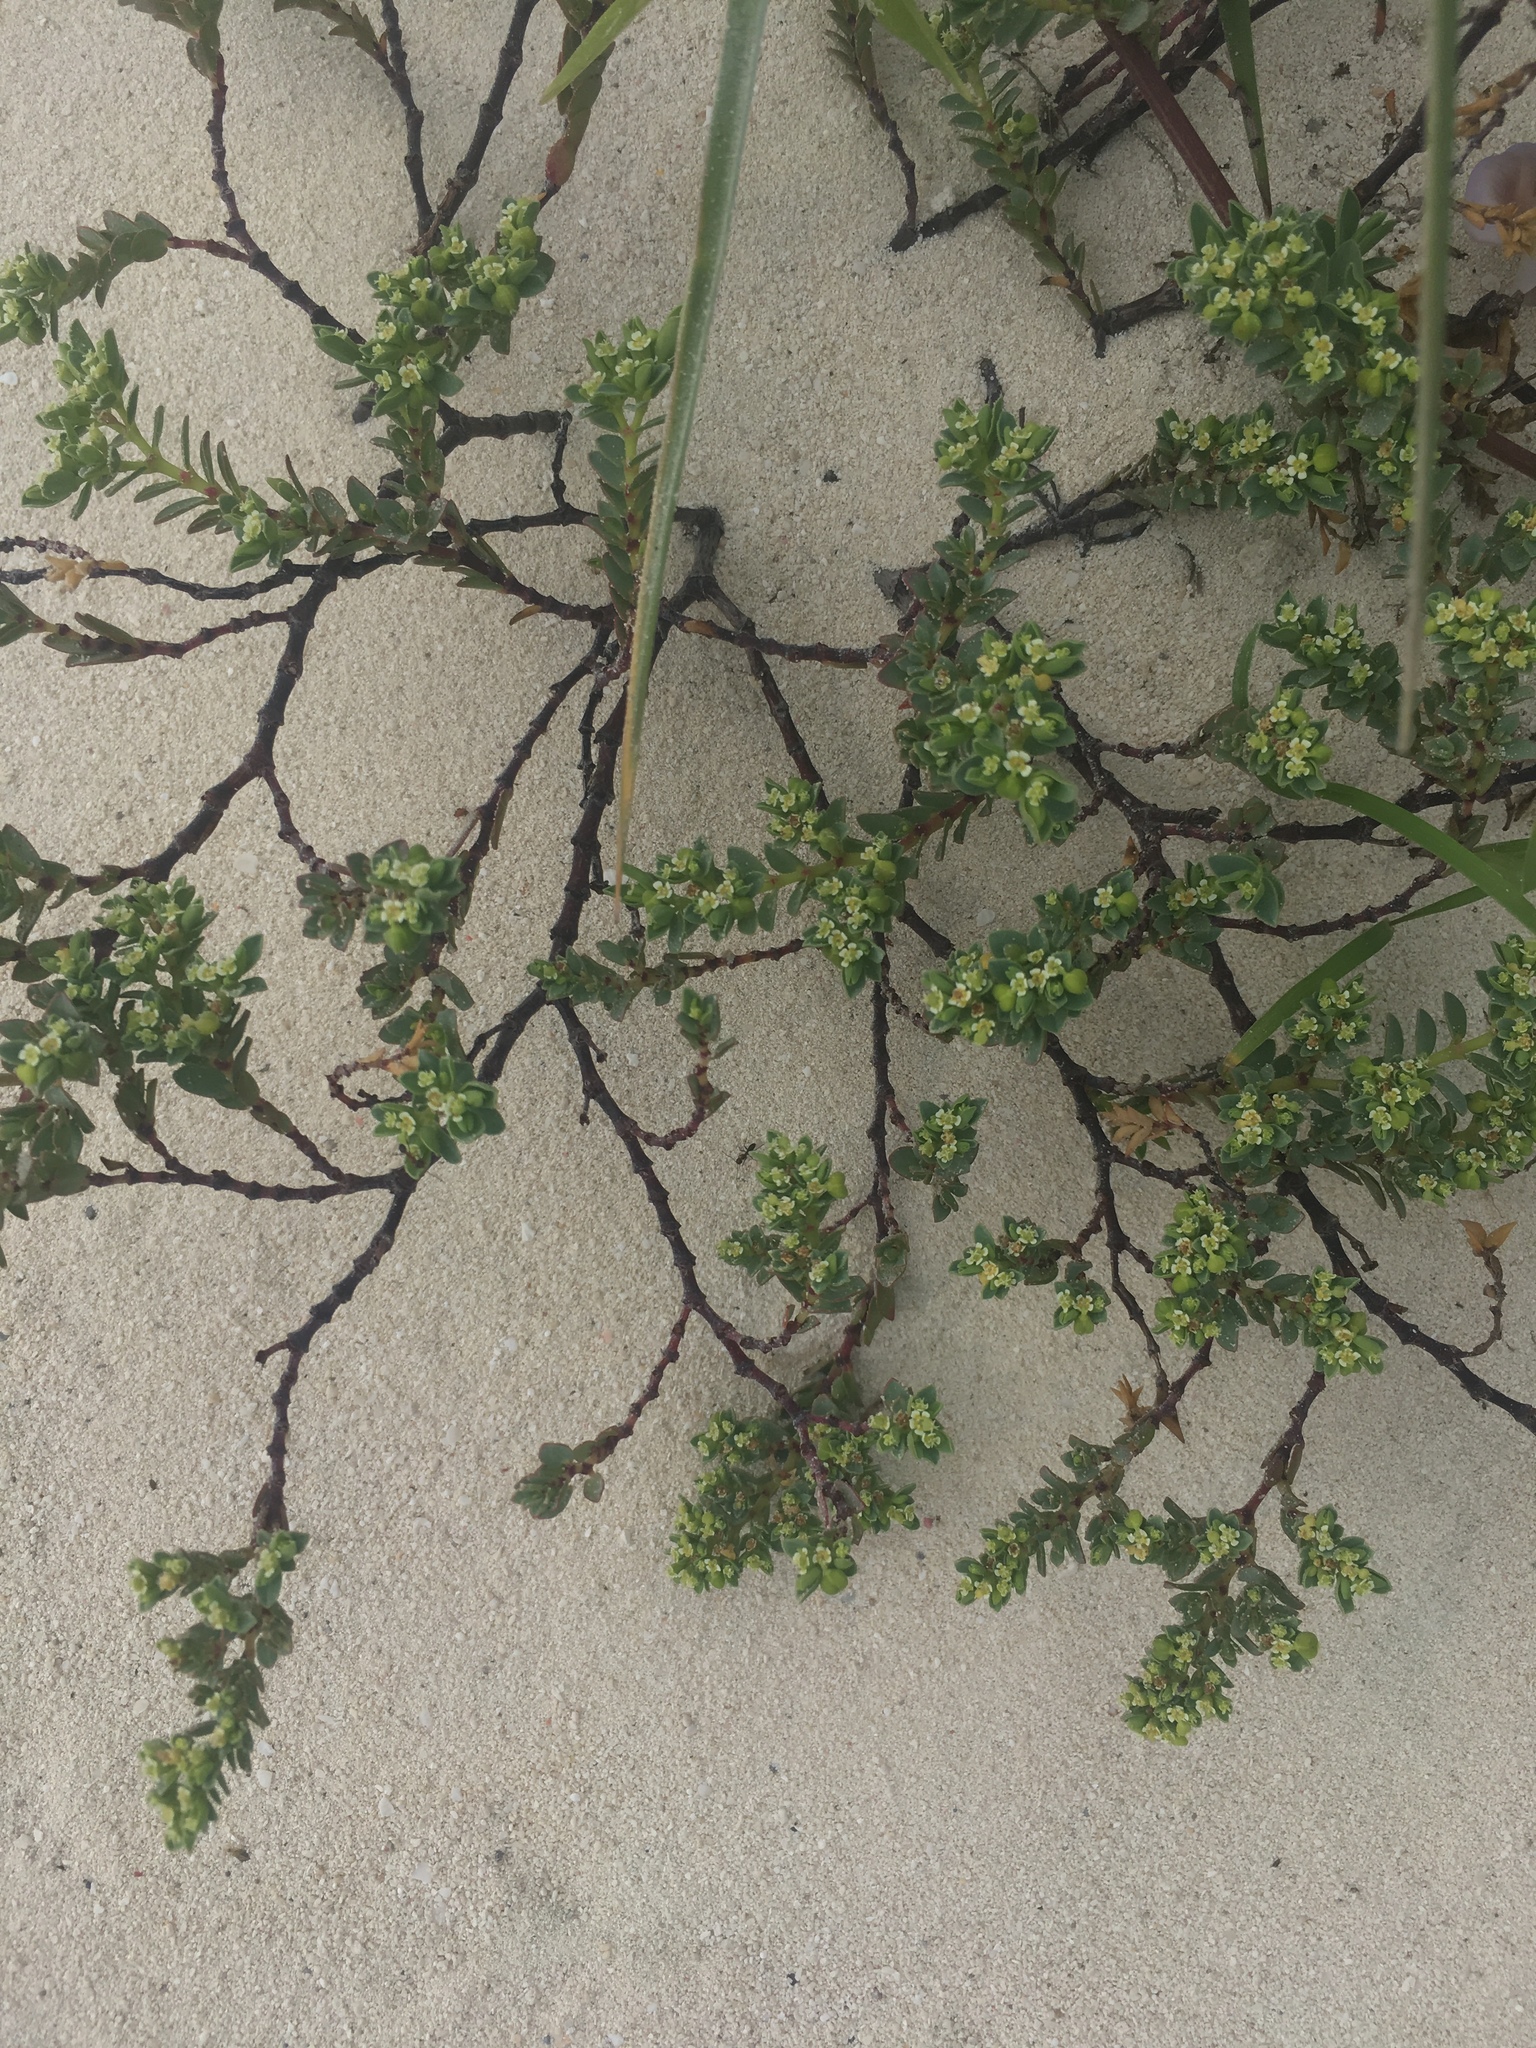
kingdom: Plantae
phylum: Tracheophyta
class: Magnoliopsida
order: Malpighiales
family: Euphorbiaceae
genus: Euphorbia
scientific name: Euphorbia mesembryanthemifolia
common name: Coastal beach sandmat
